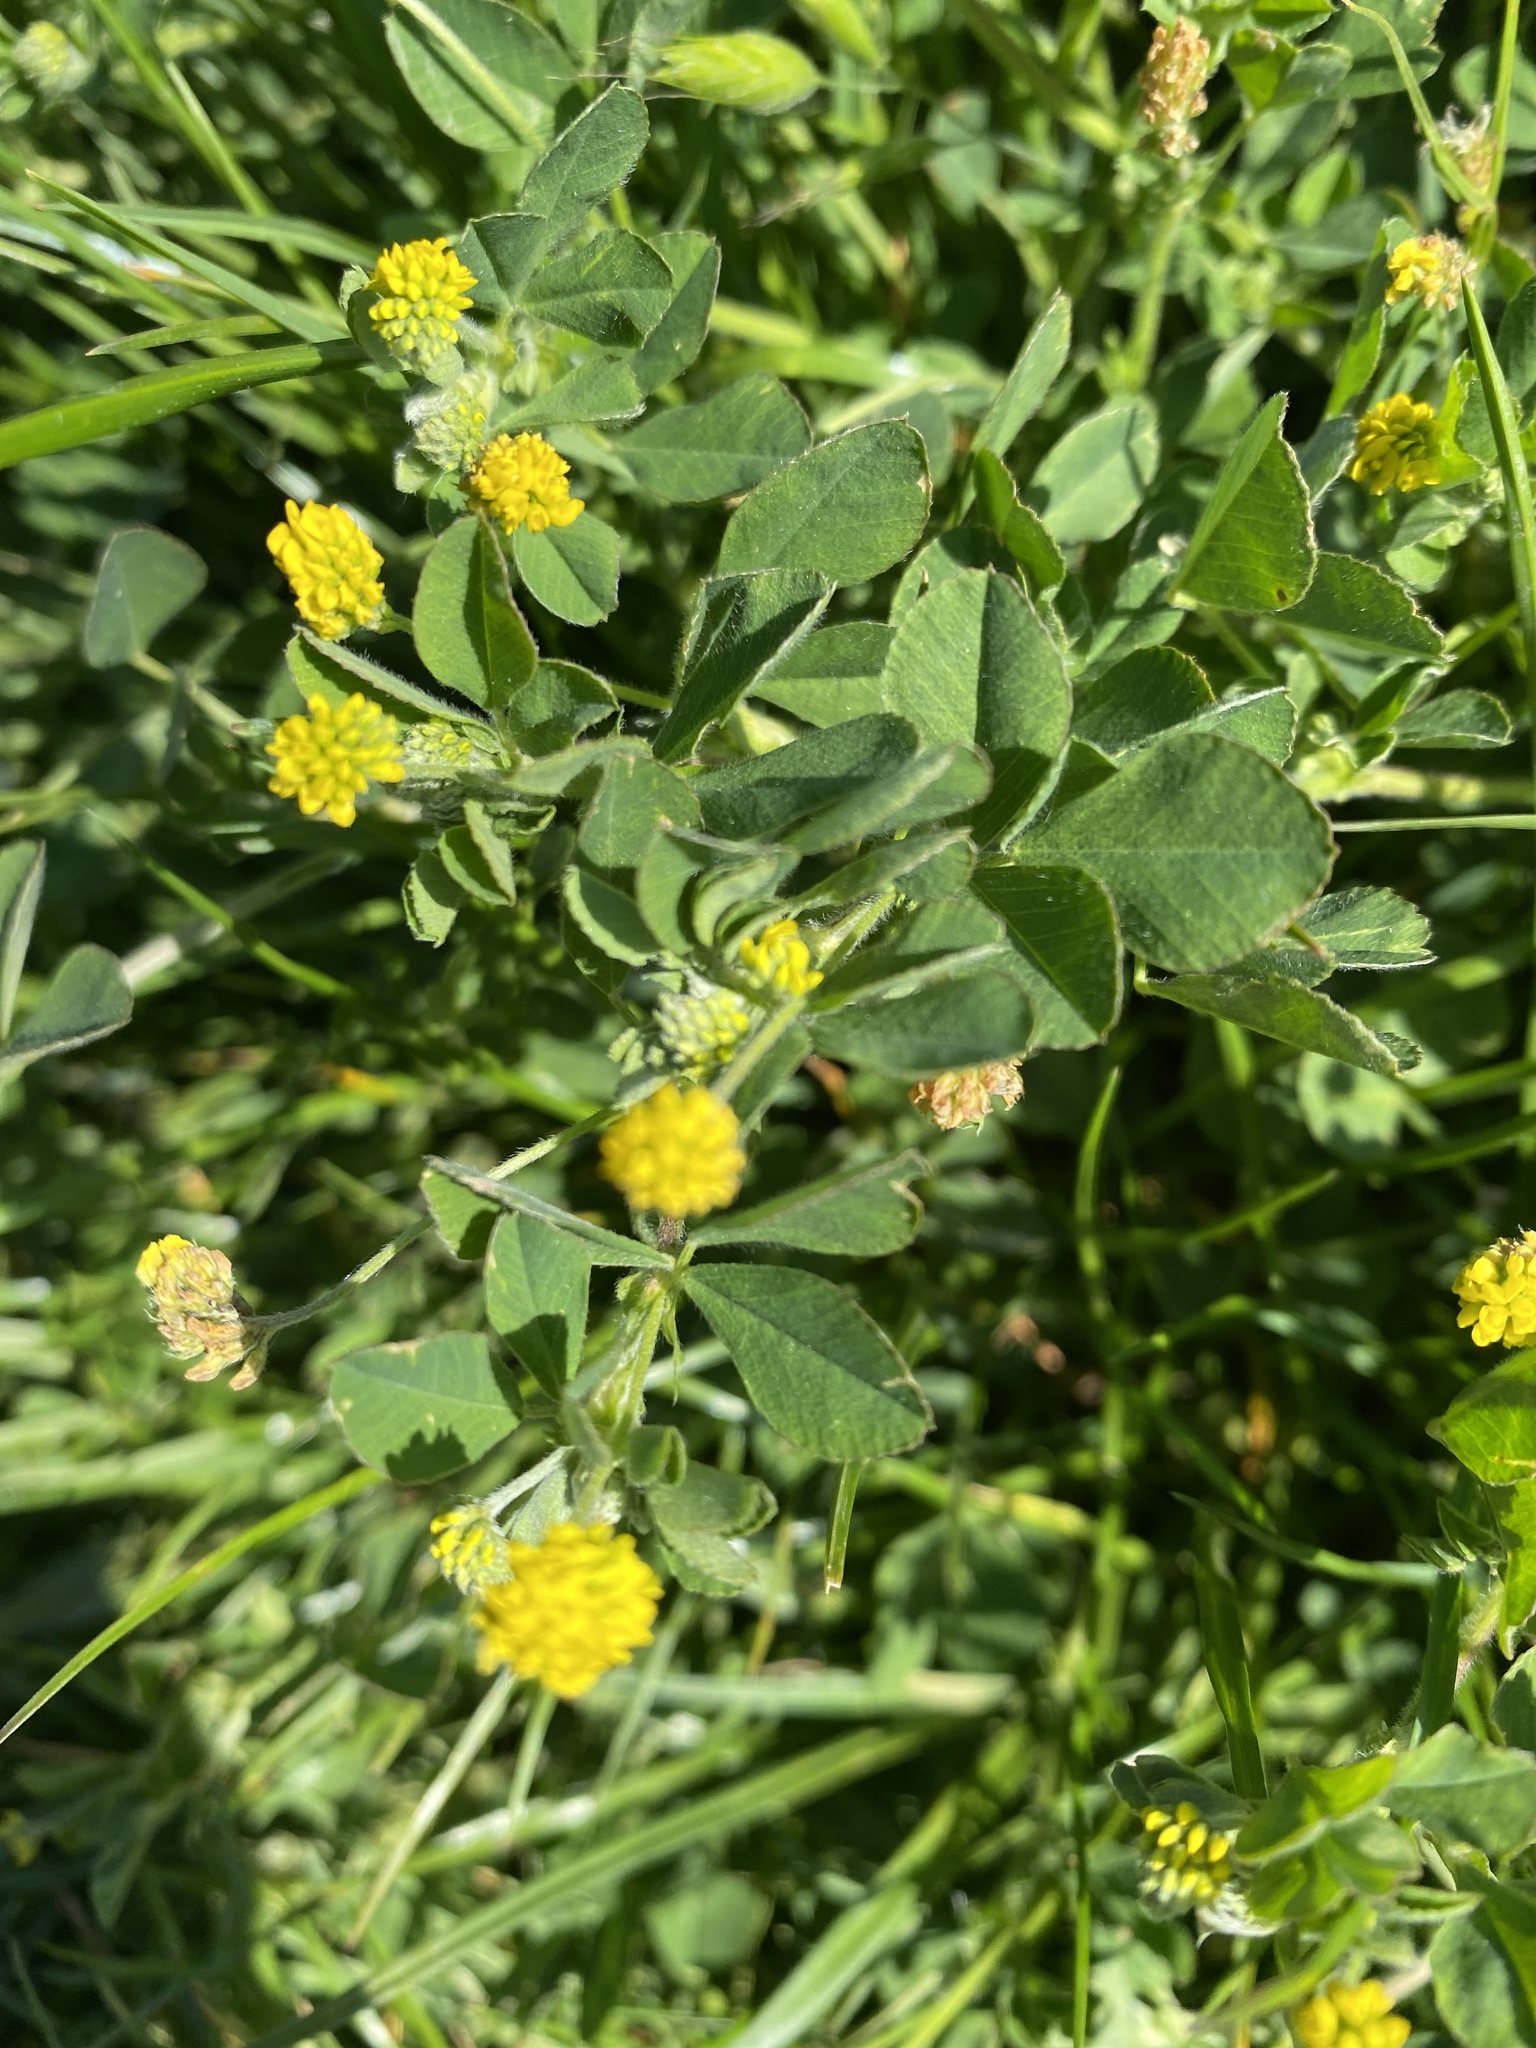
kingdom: Plantae
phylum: Tracheophyta
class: Magnoliopsida
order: Fabales
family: Fabaceae
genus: Medicago
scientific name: Medicago lupulina
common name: Black medick
